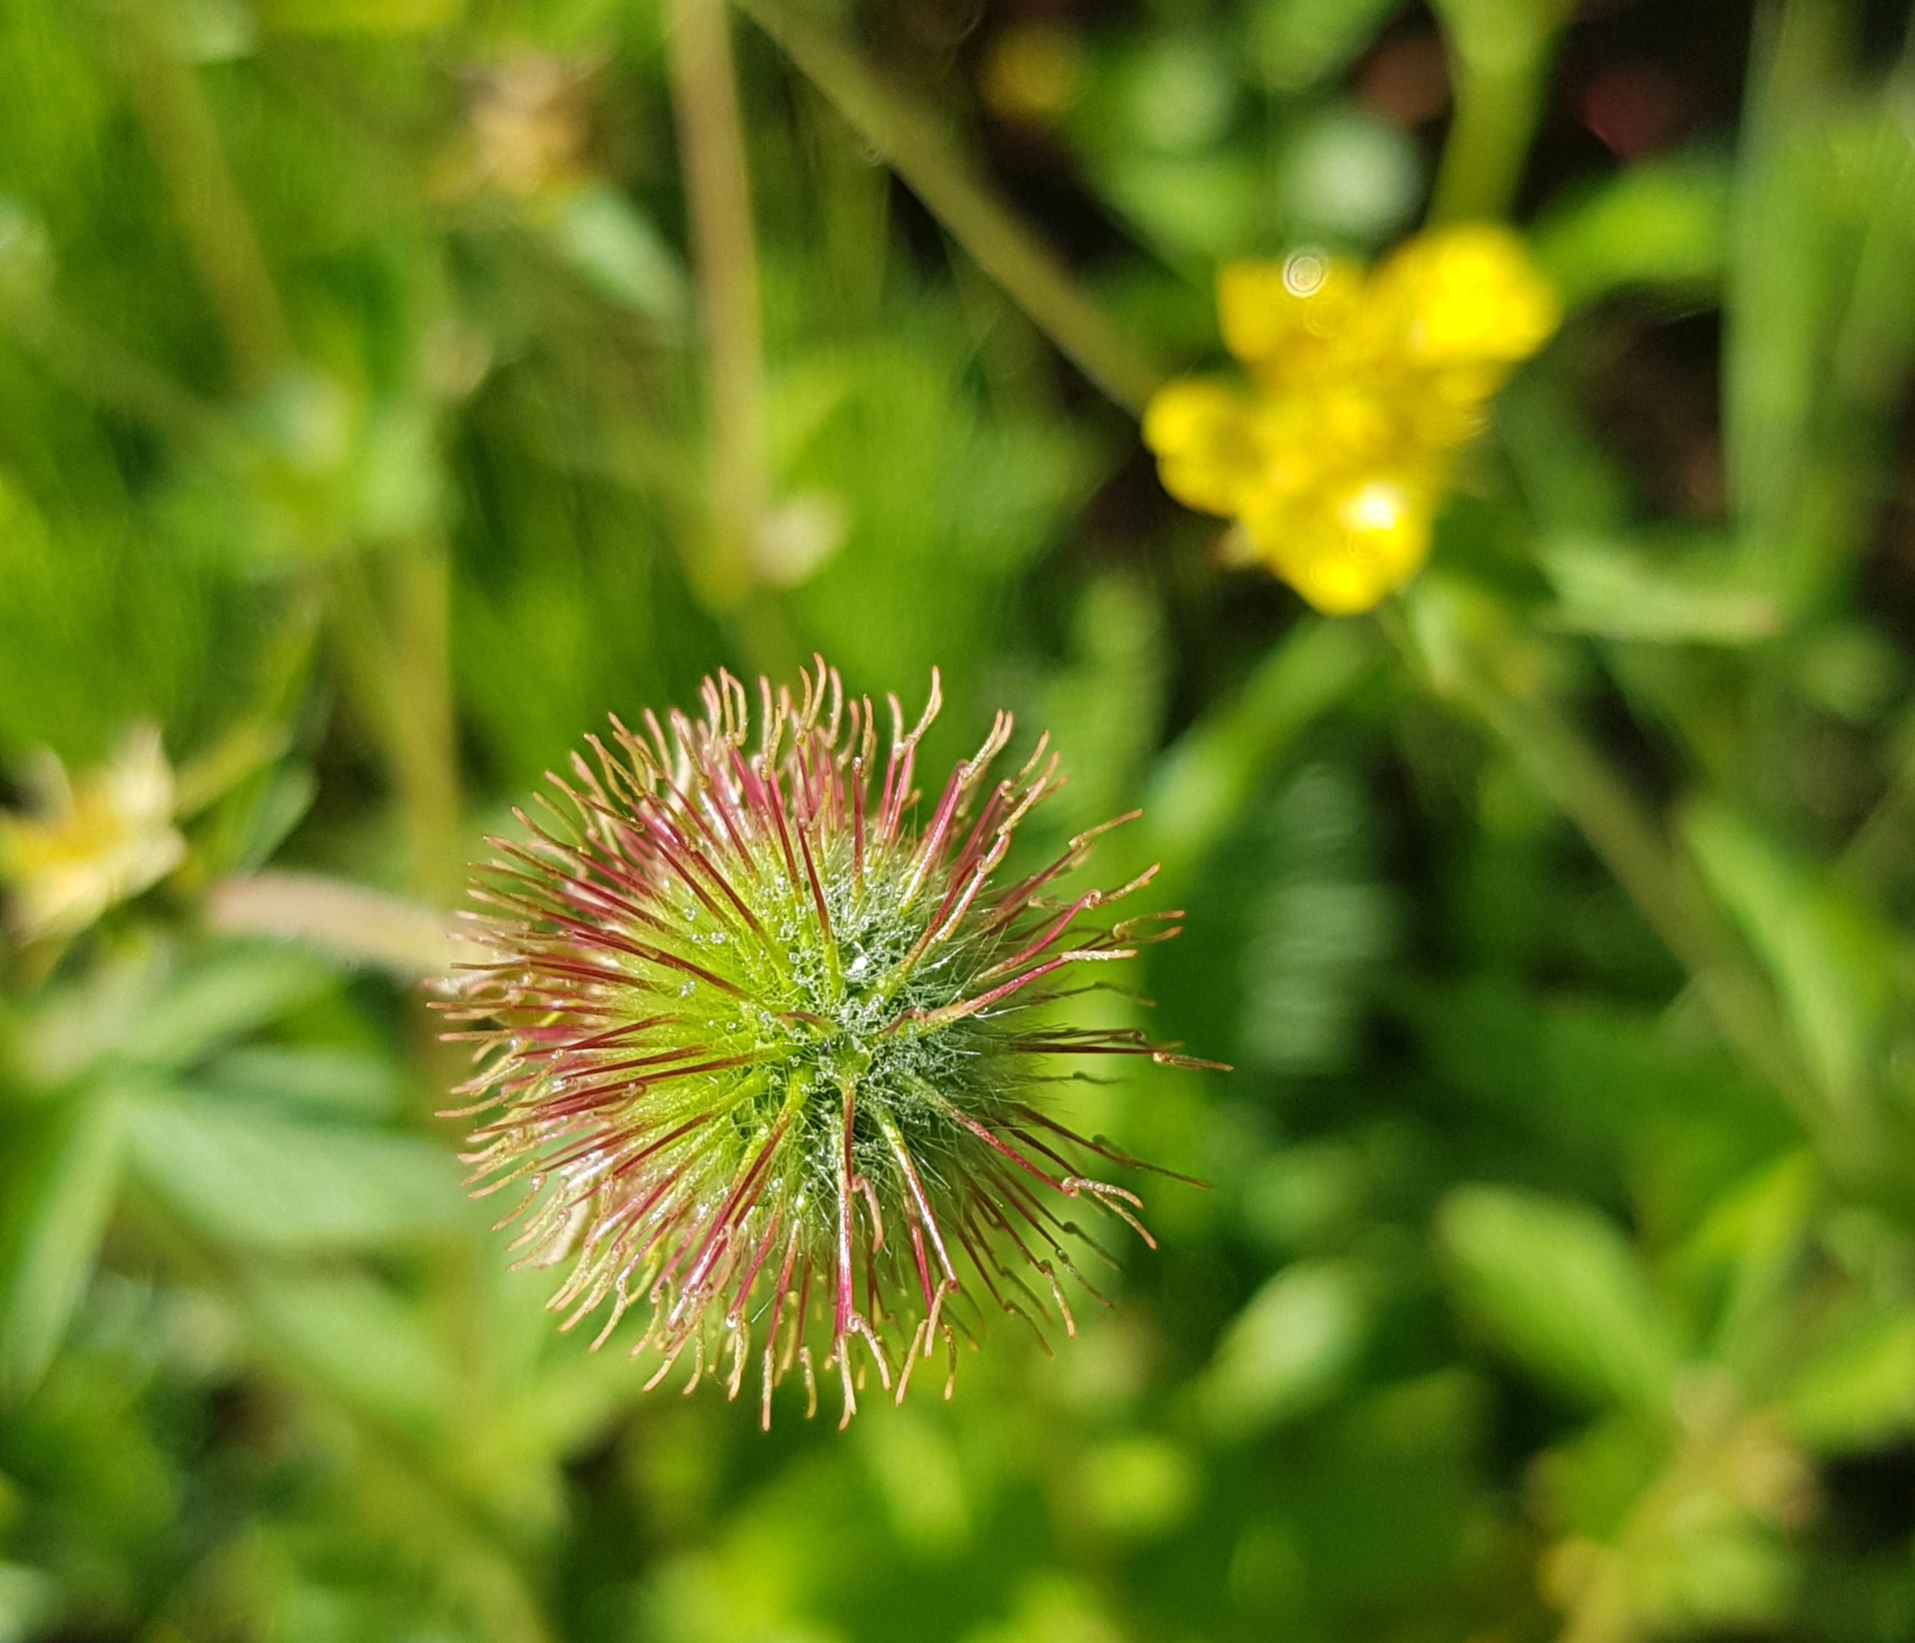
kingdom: Plantae
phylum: Tracheophyta
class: Magnoliopsida
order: Rosales
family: Rosaceae
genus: Geum
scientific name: Geum aleppicum
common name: Yellow avens
